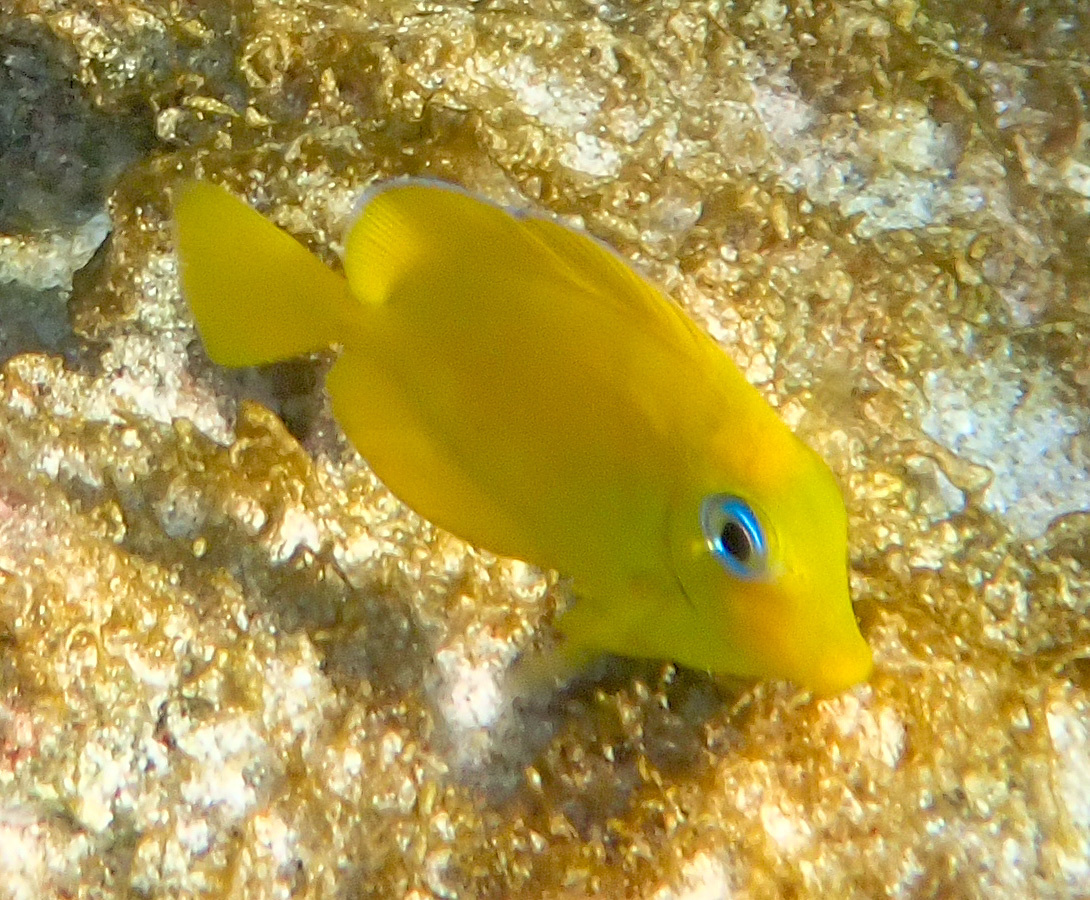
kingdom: Animalia
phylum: Chordata
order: Perciformes
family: Acanthuridae
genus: Acanthurus
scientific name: Acanthurus coeruleus
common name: Blue tang
